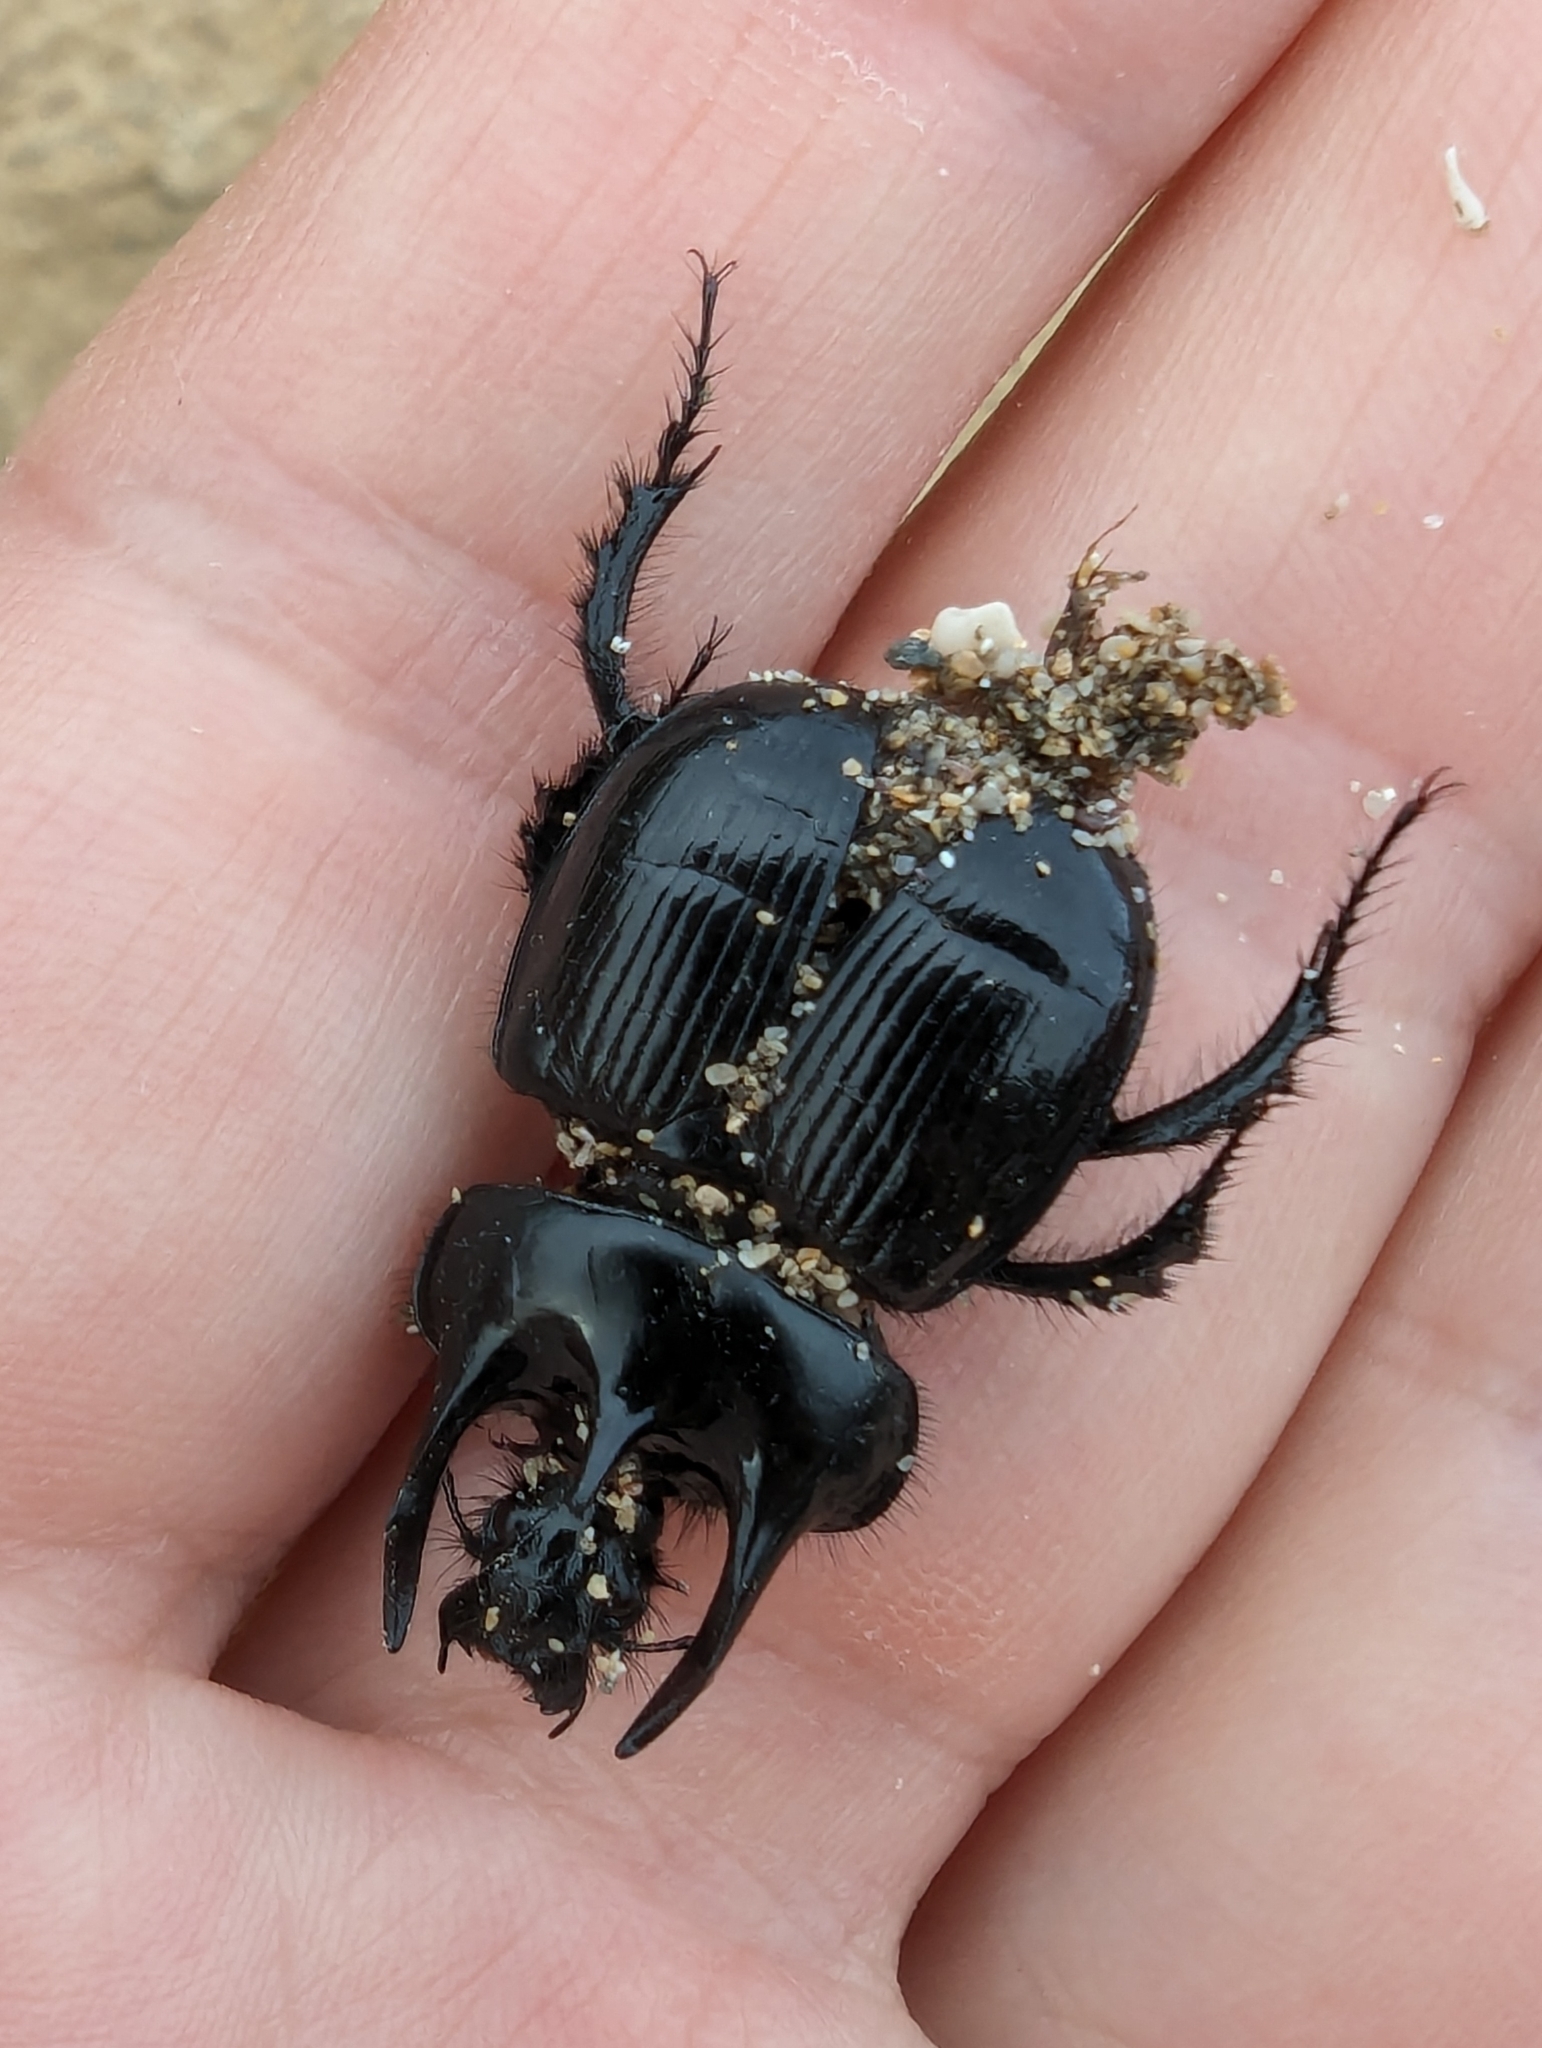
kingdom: Animalia
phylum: Arthropoda
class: Insecta
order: Coleoptera
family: Geotrupidae
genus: Typhaeus
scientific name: Typhaeus typhoeus
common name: Minotaur beetle
